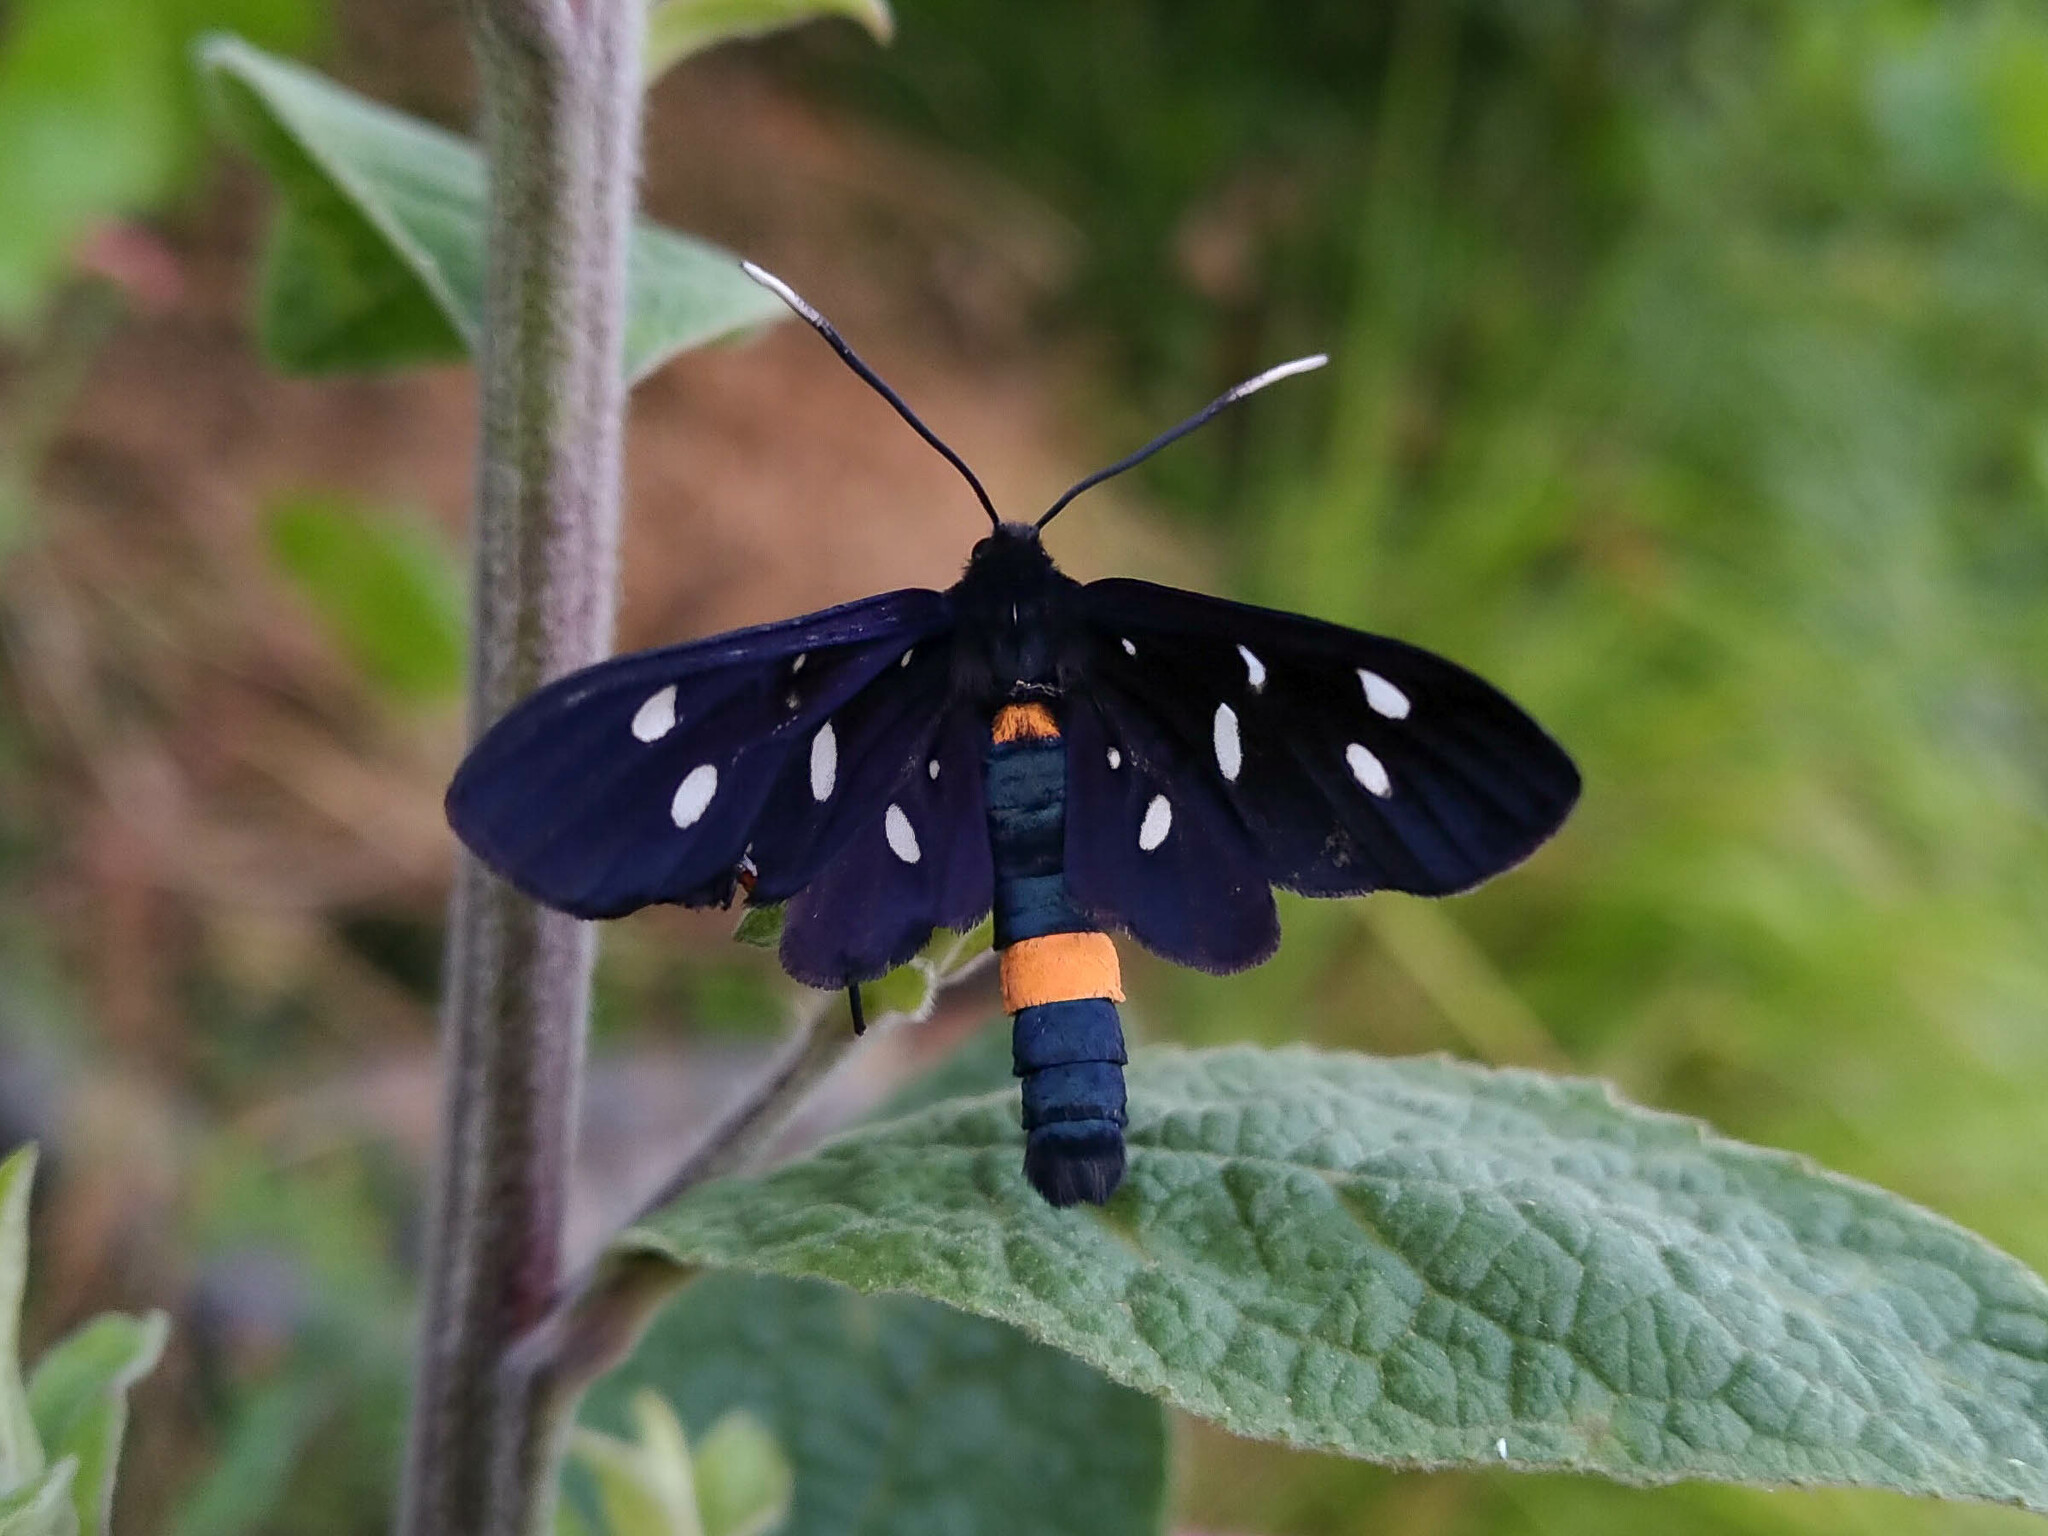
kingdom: Animalia
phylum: Arthropoda
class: Insecta
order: Lepidoptera
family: Erebidae
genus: Amata
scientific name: Amata phegea
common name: Nine-spotted
